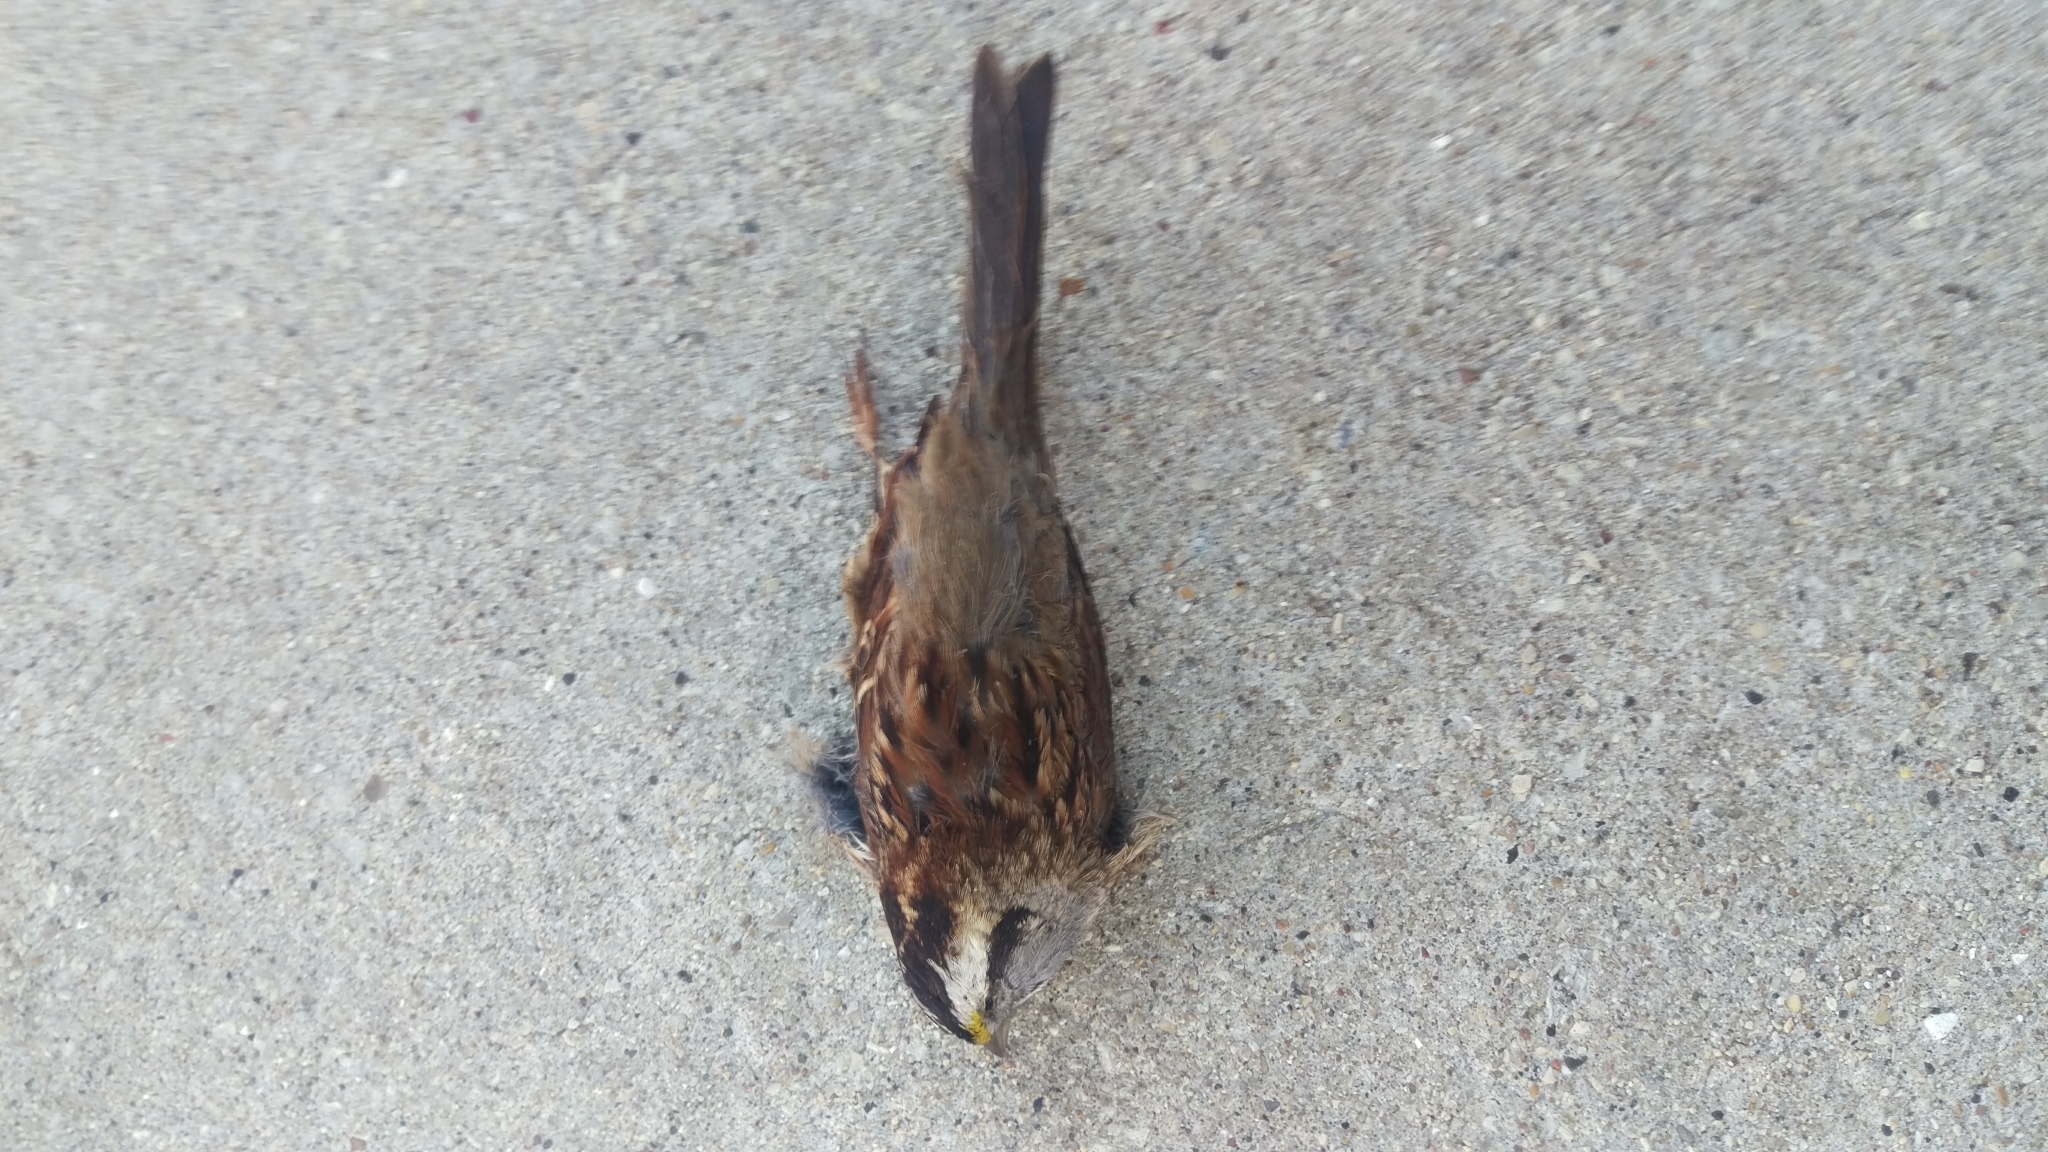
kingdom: Animalia
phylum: Chordata
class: Aves
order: Passeriformes
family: Passerellidae
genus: Zonotrichia
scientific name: Zonotrichia albicollis
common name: White-throated sparrow
